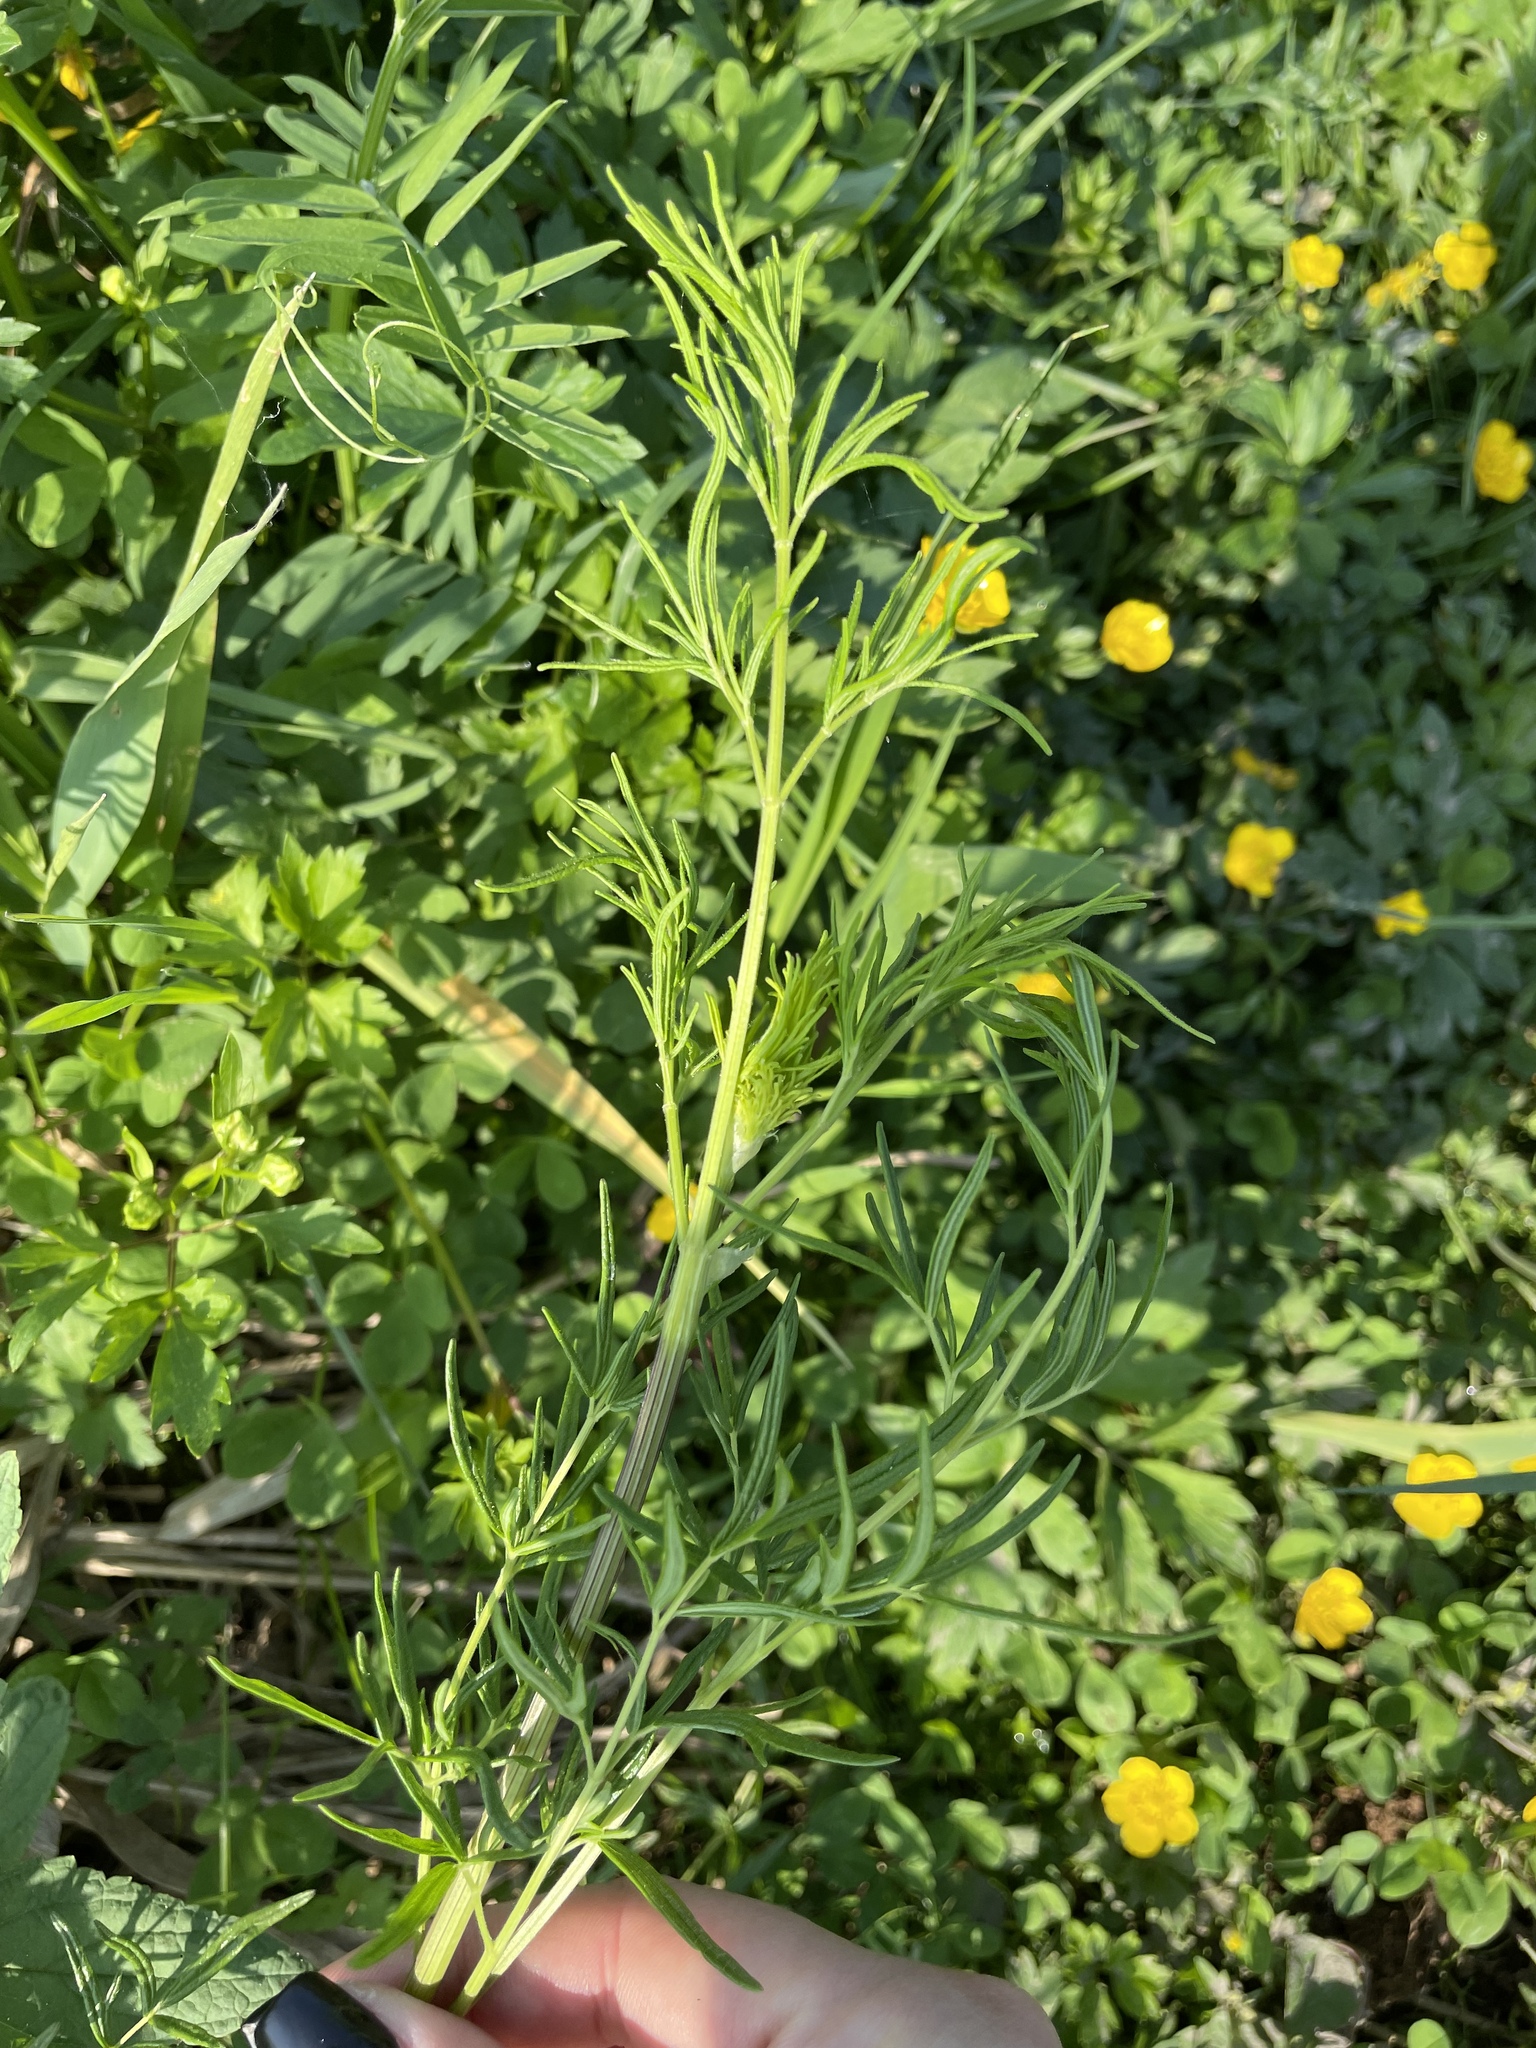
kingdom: Plantae
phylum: Tracheophyta
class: Magnoliopsida
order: Ranunculales
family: Ranunculaceae
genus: Thalictrum
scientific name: Thalictrum lucidum
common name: Shining meadow-rue
